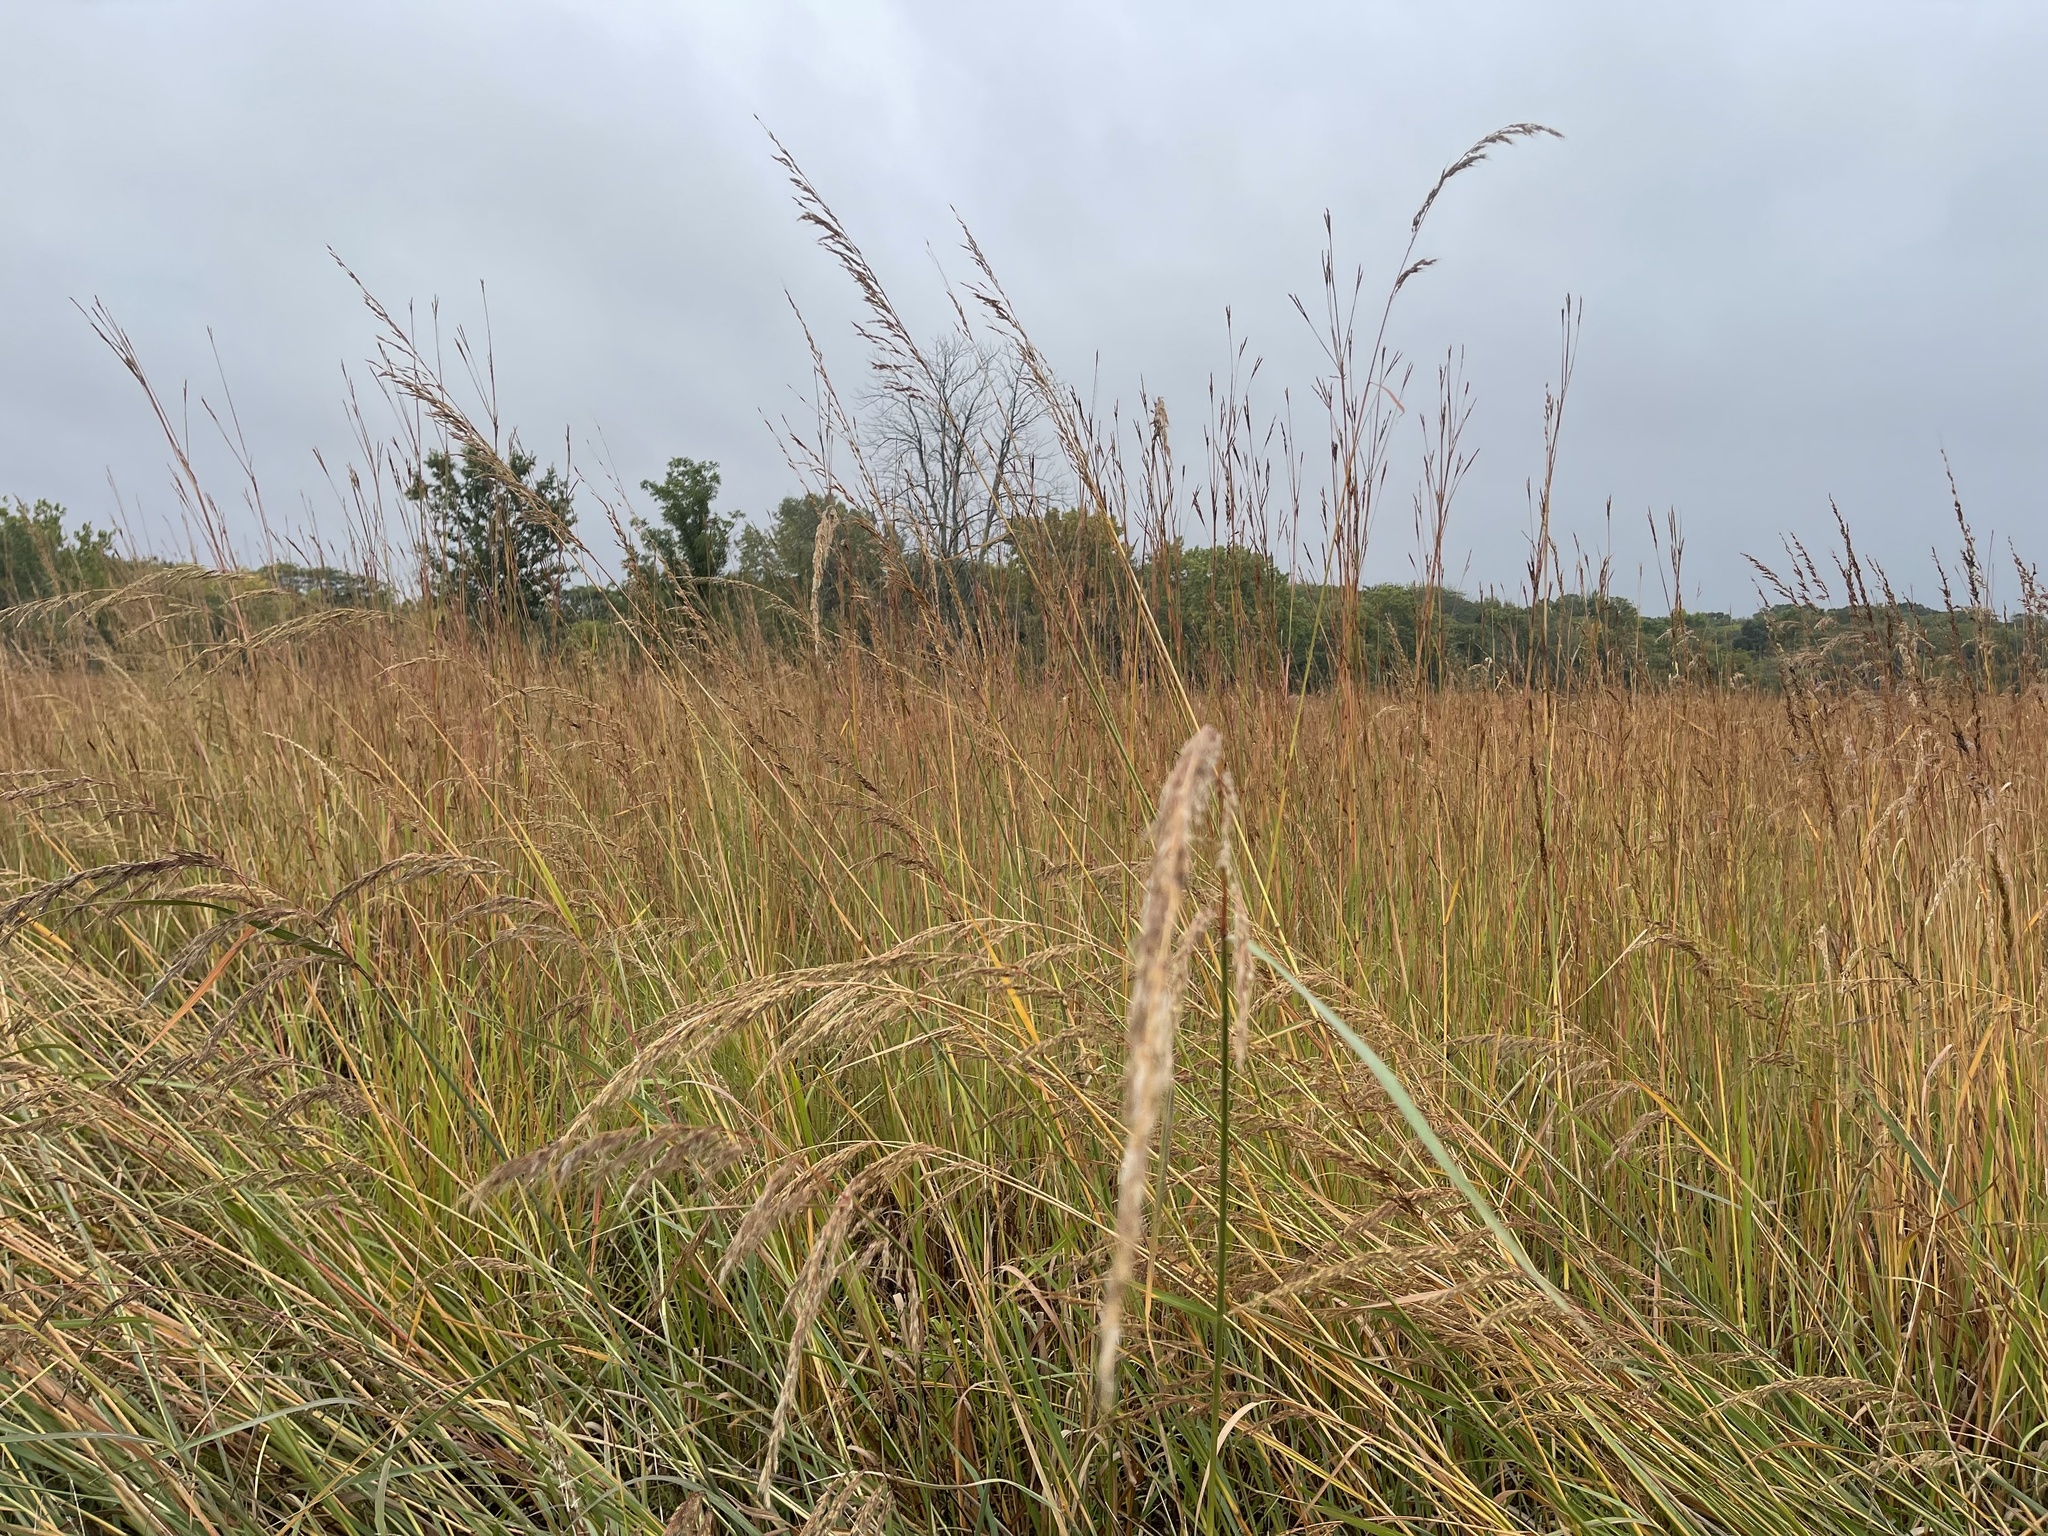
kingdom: Plantae
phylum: Tracheophyta
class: Liliopsida
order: Poales
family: Poaceae
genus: Sorghastrum
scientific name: Sorghastrum nutans
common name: Indian grass
